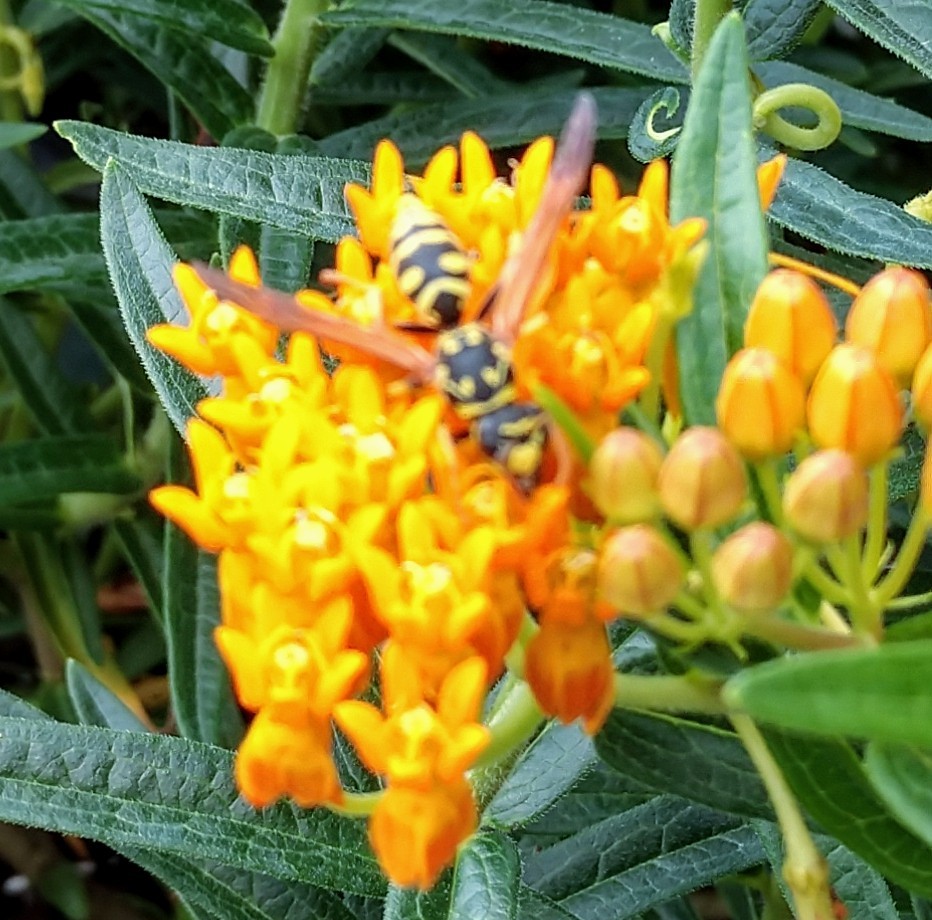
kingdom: Animalia
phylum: Arthropoda
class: Insecta
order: Hymenoptera
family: Eumenidae
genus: Polistes
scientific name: Polistes dominula
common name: Paper wasp
